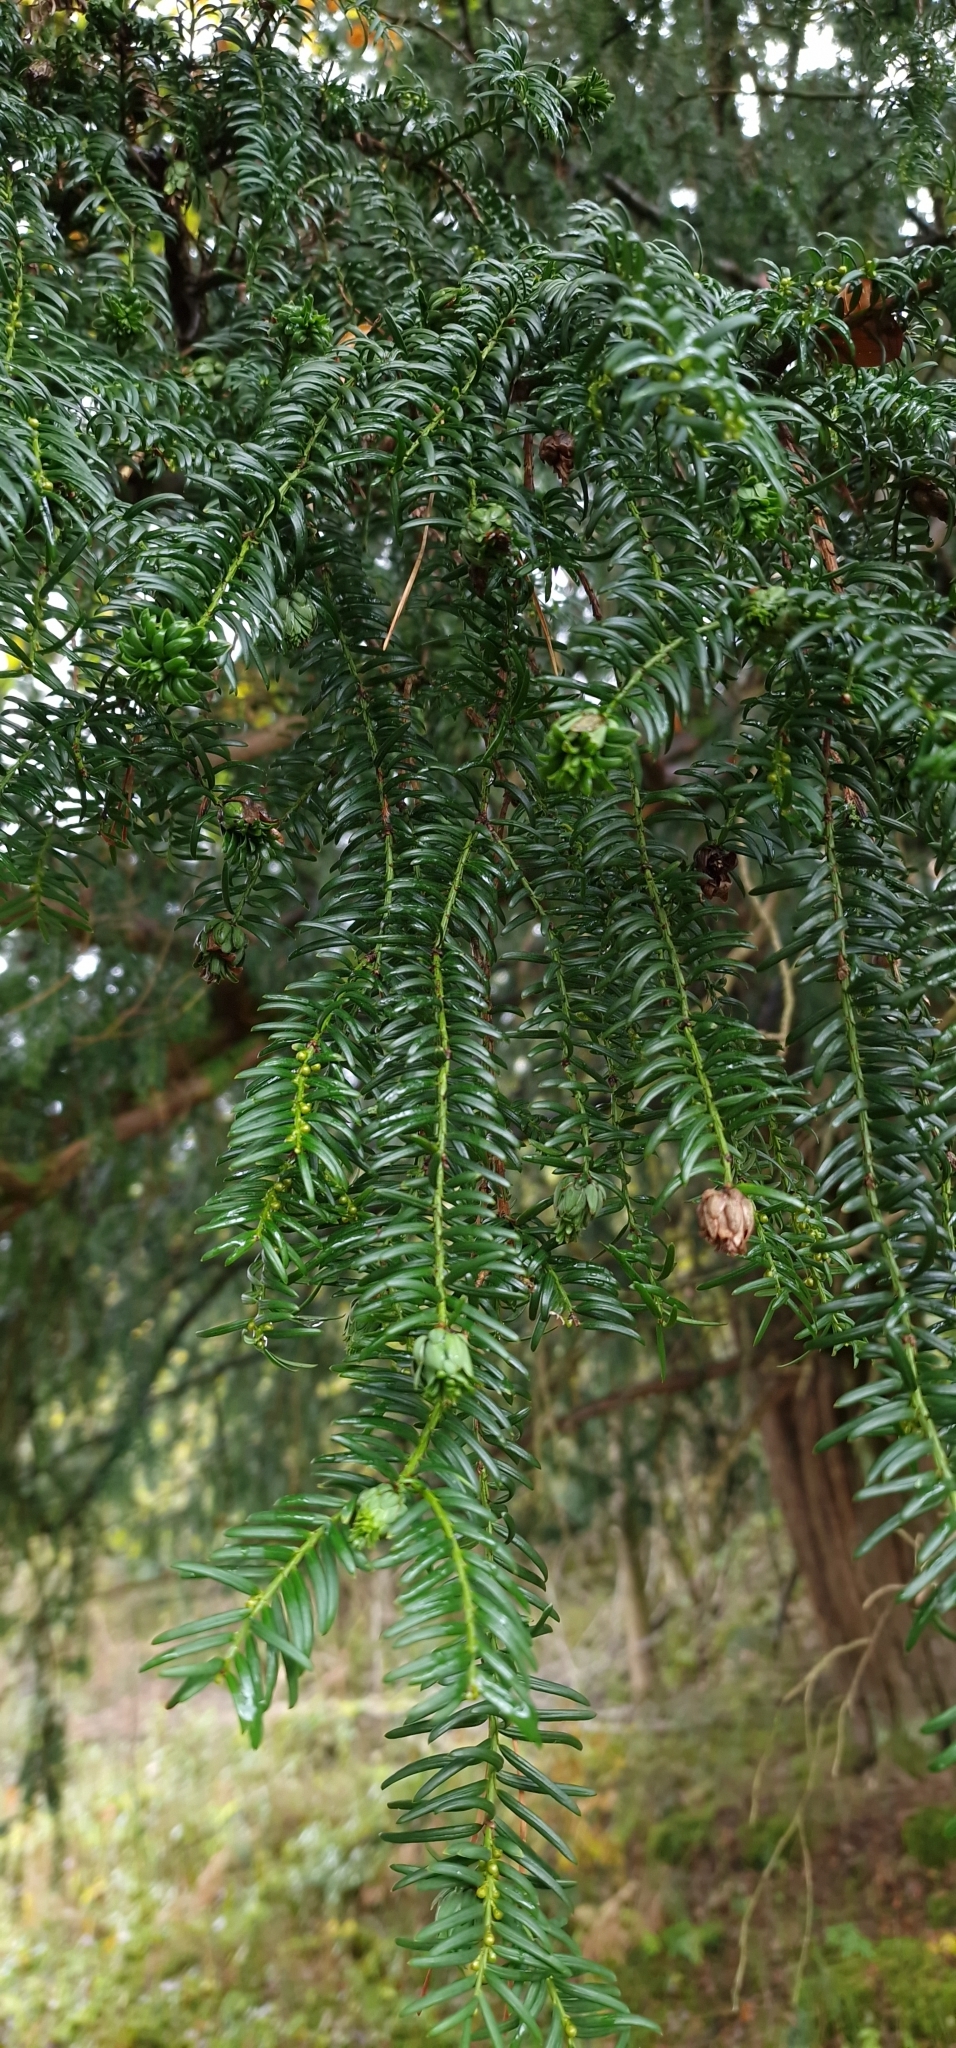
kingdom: Plantae
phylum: Tracheophyta
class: Pinopsida
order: Pinales
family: Taxaceae
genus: Taxus
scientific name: Taxus baccata
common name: Yew
